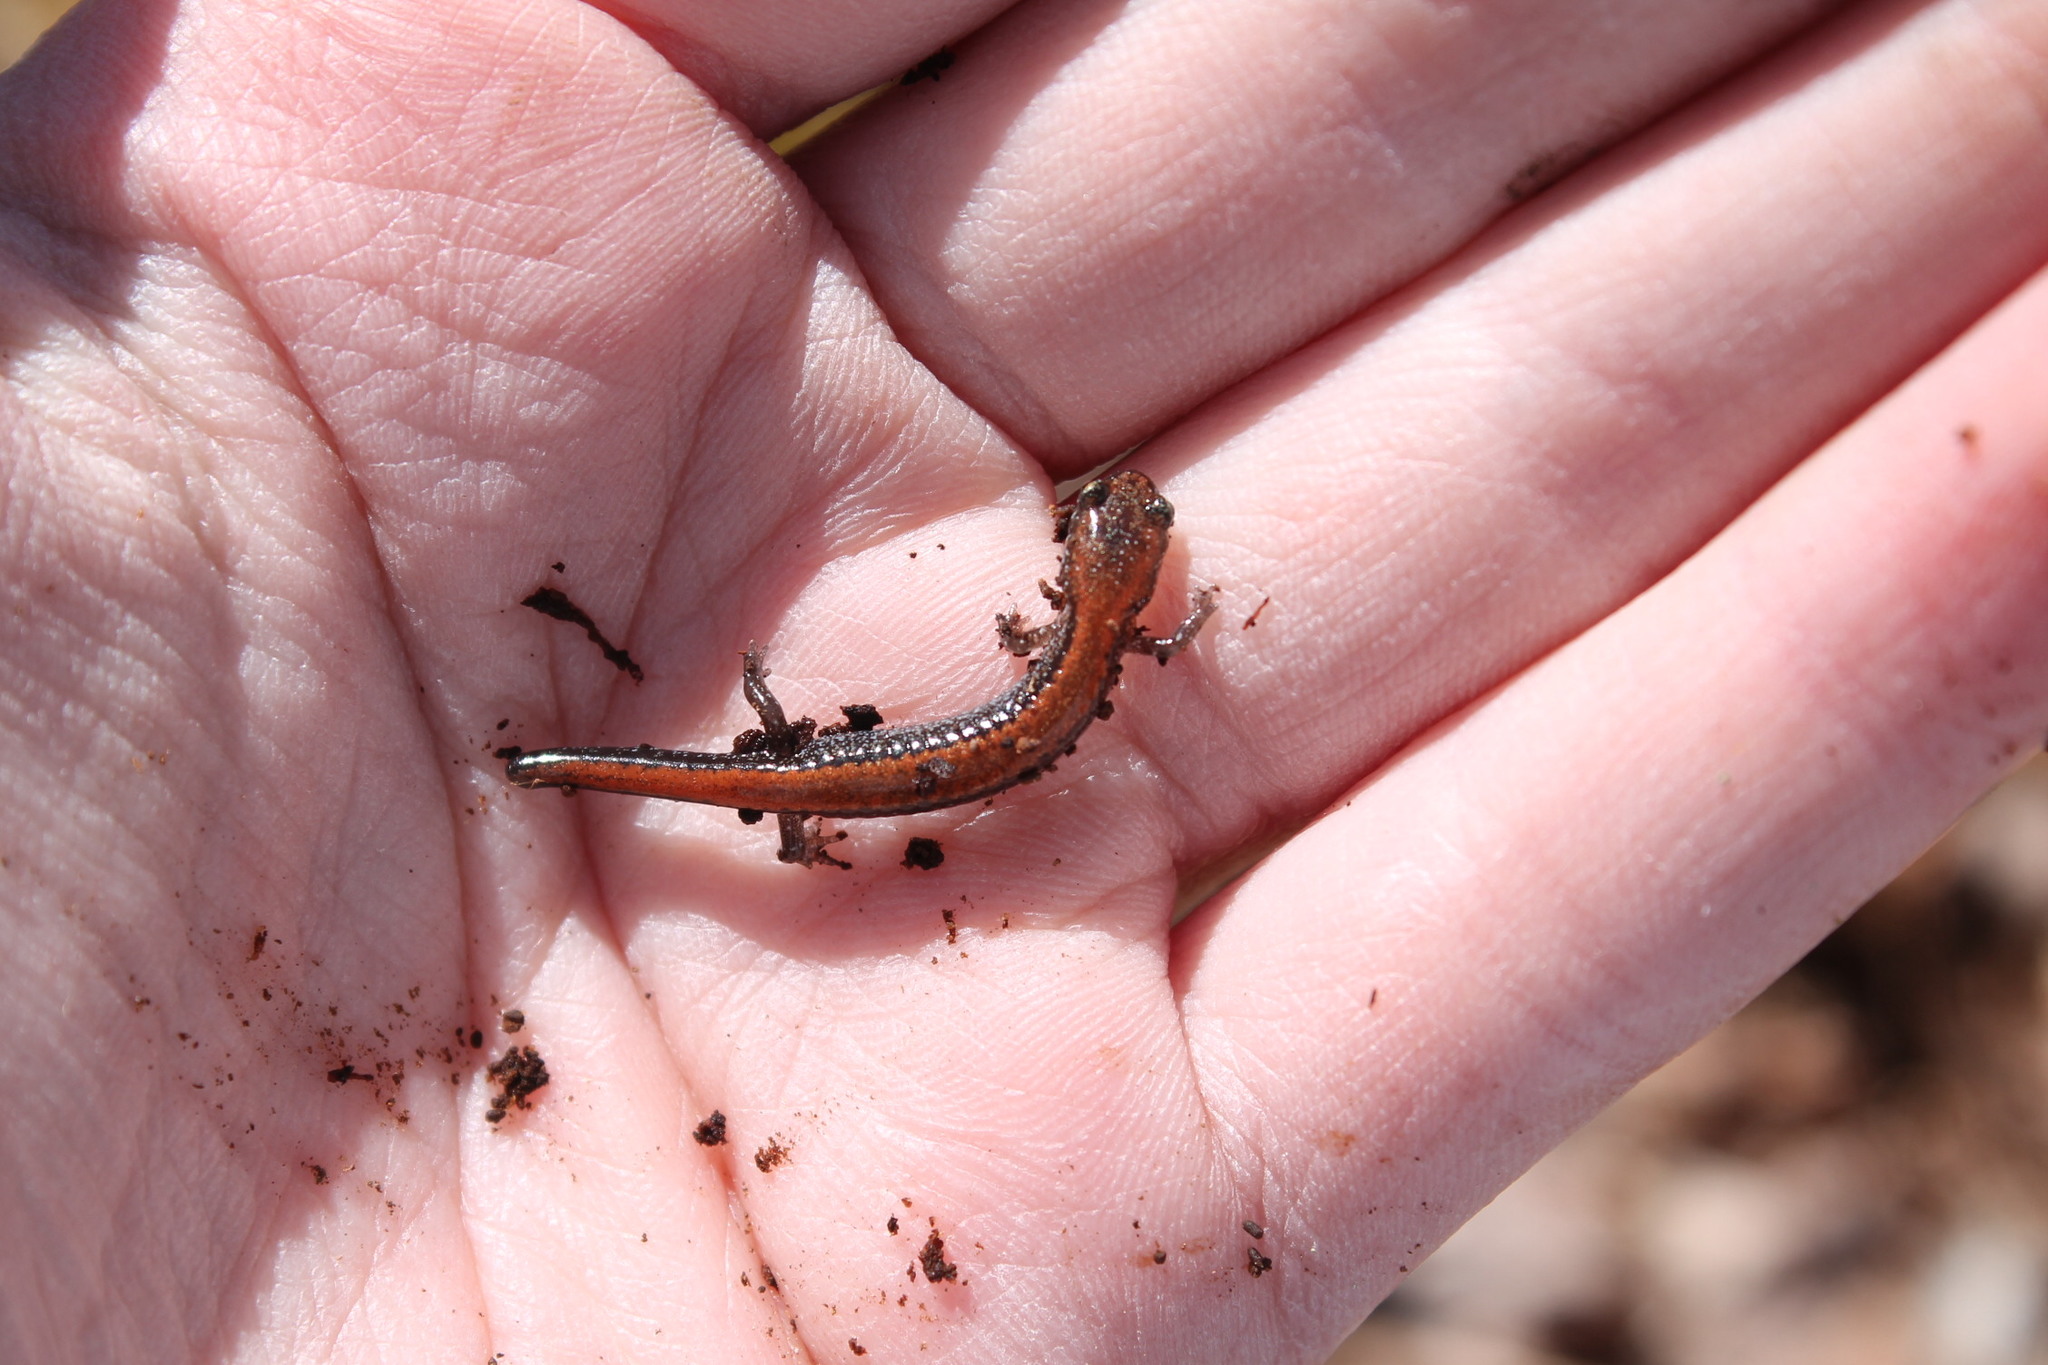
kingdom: Animalia
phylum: Chordata
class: Amphibia
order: Caudata
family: Plethodontidae
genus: Plethodon
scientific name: Plethodon cinereus
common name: Redback salamander
